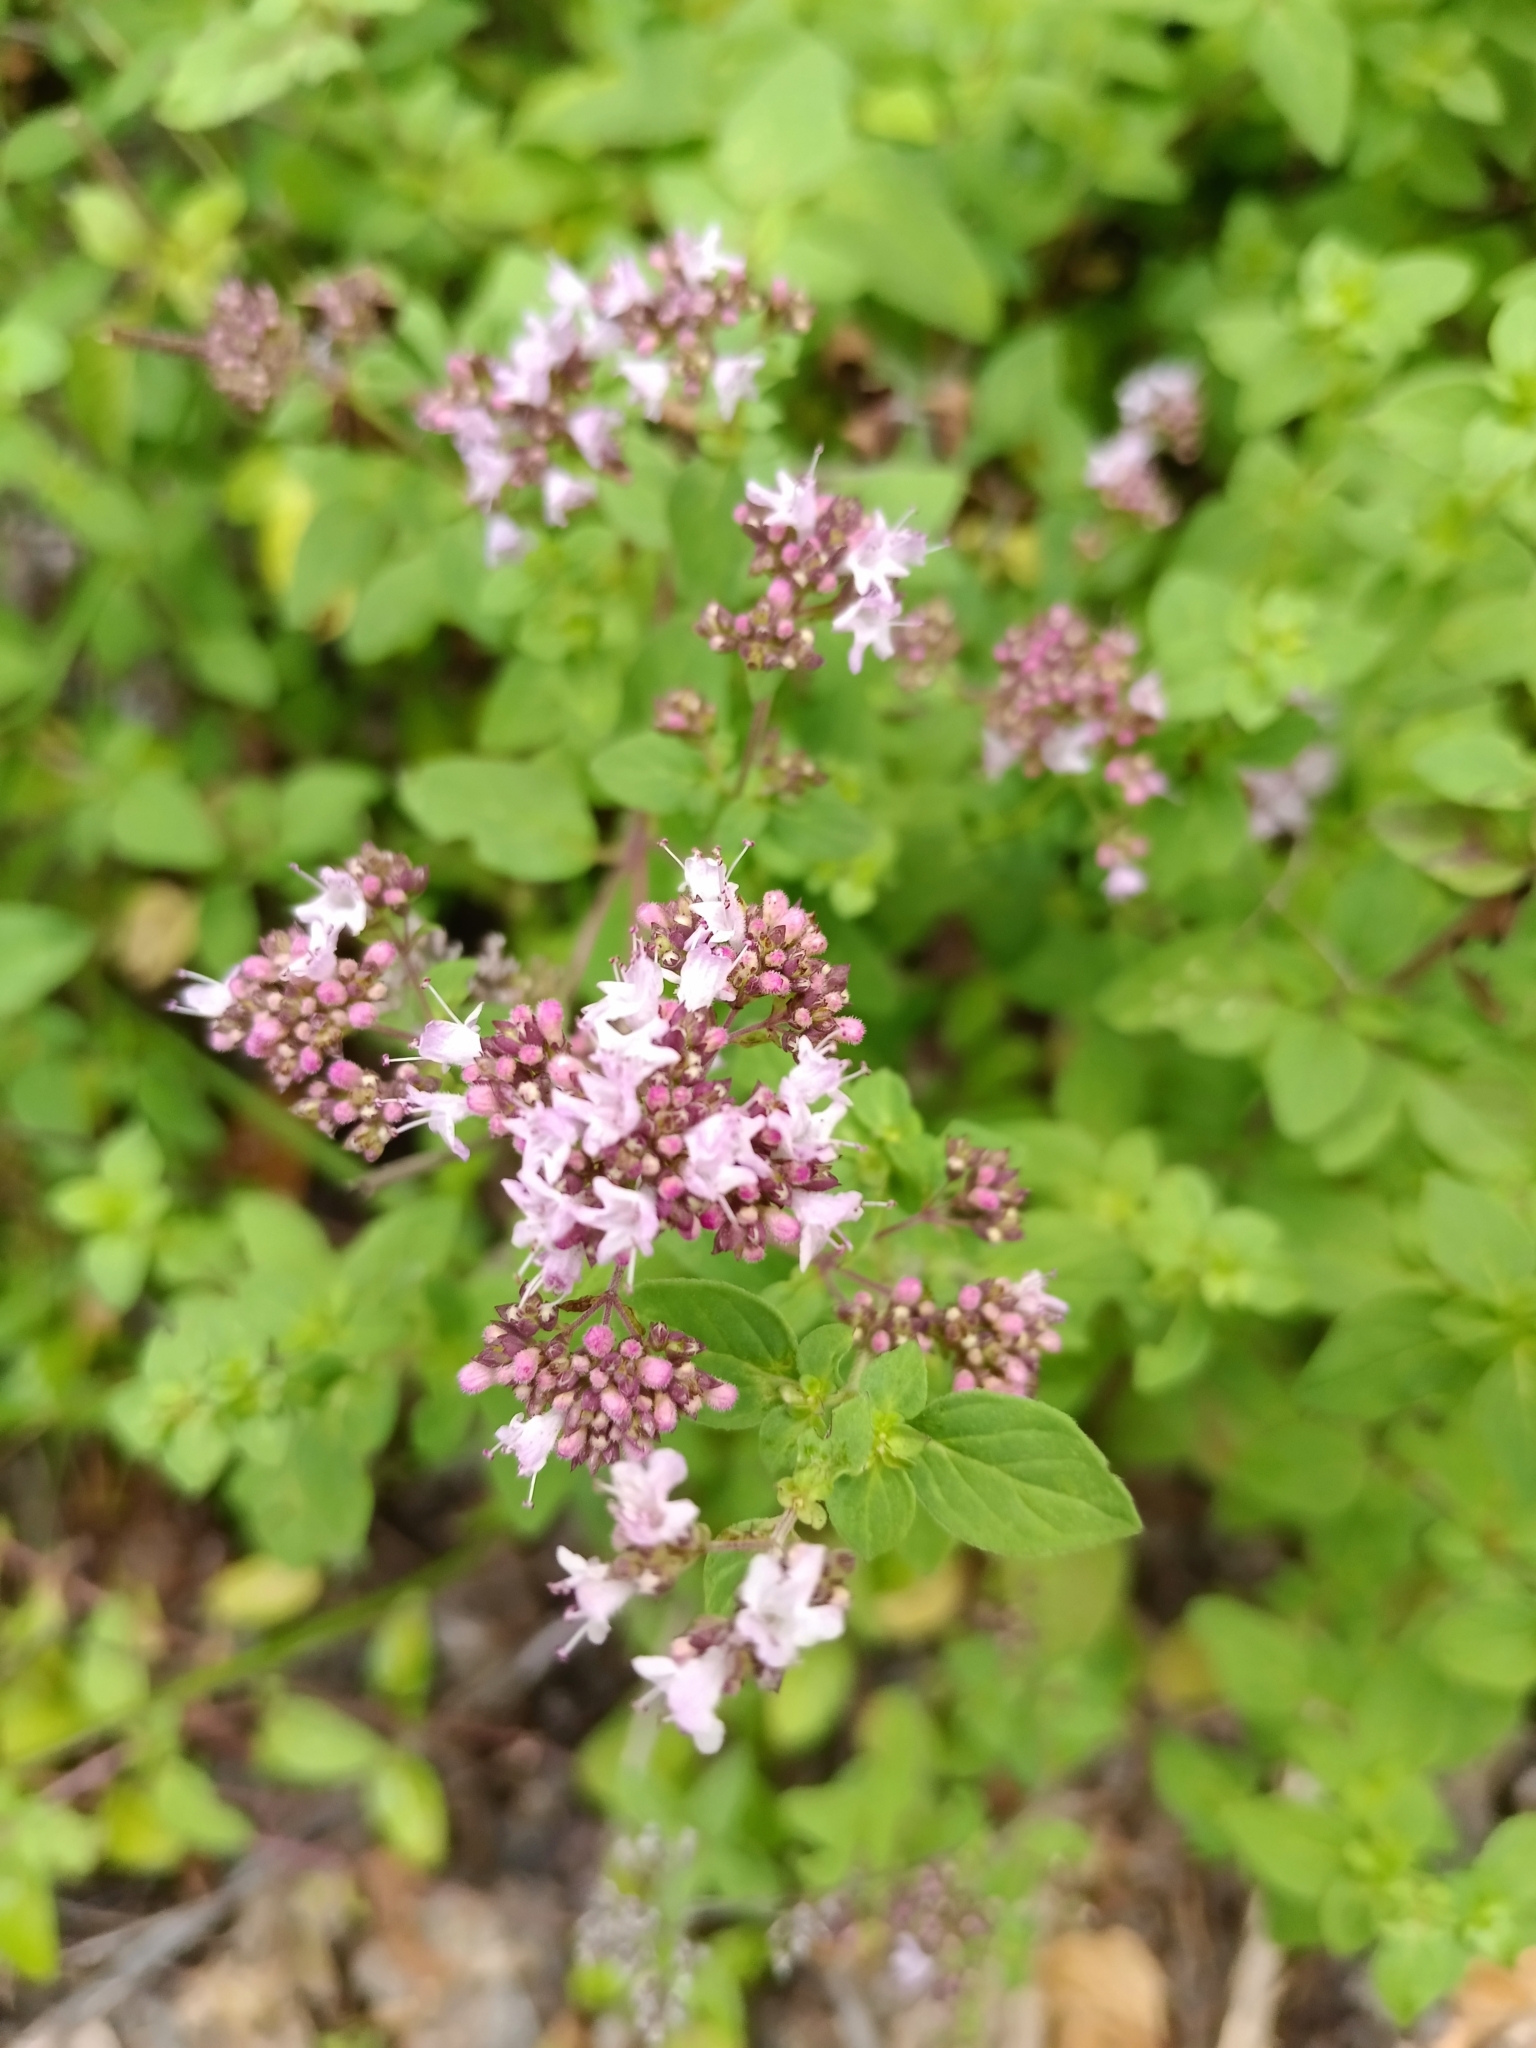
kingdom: Plantae
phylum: Tracheophyta
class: Magnoliopsida
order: Lamiales
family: Lamiaceae
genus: Origanum
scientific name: Origanum vulgare
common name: Wild marjoram
